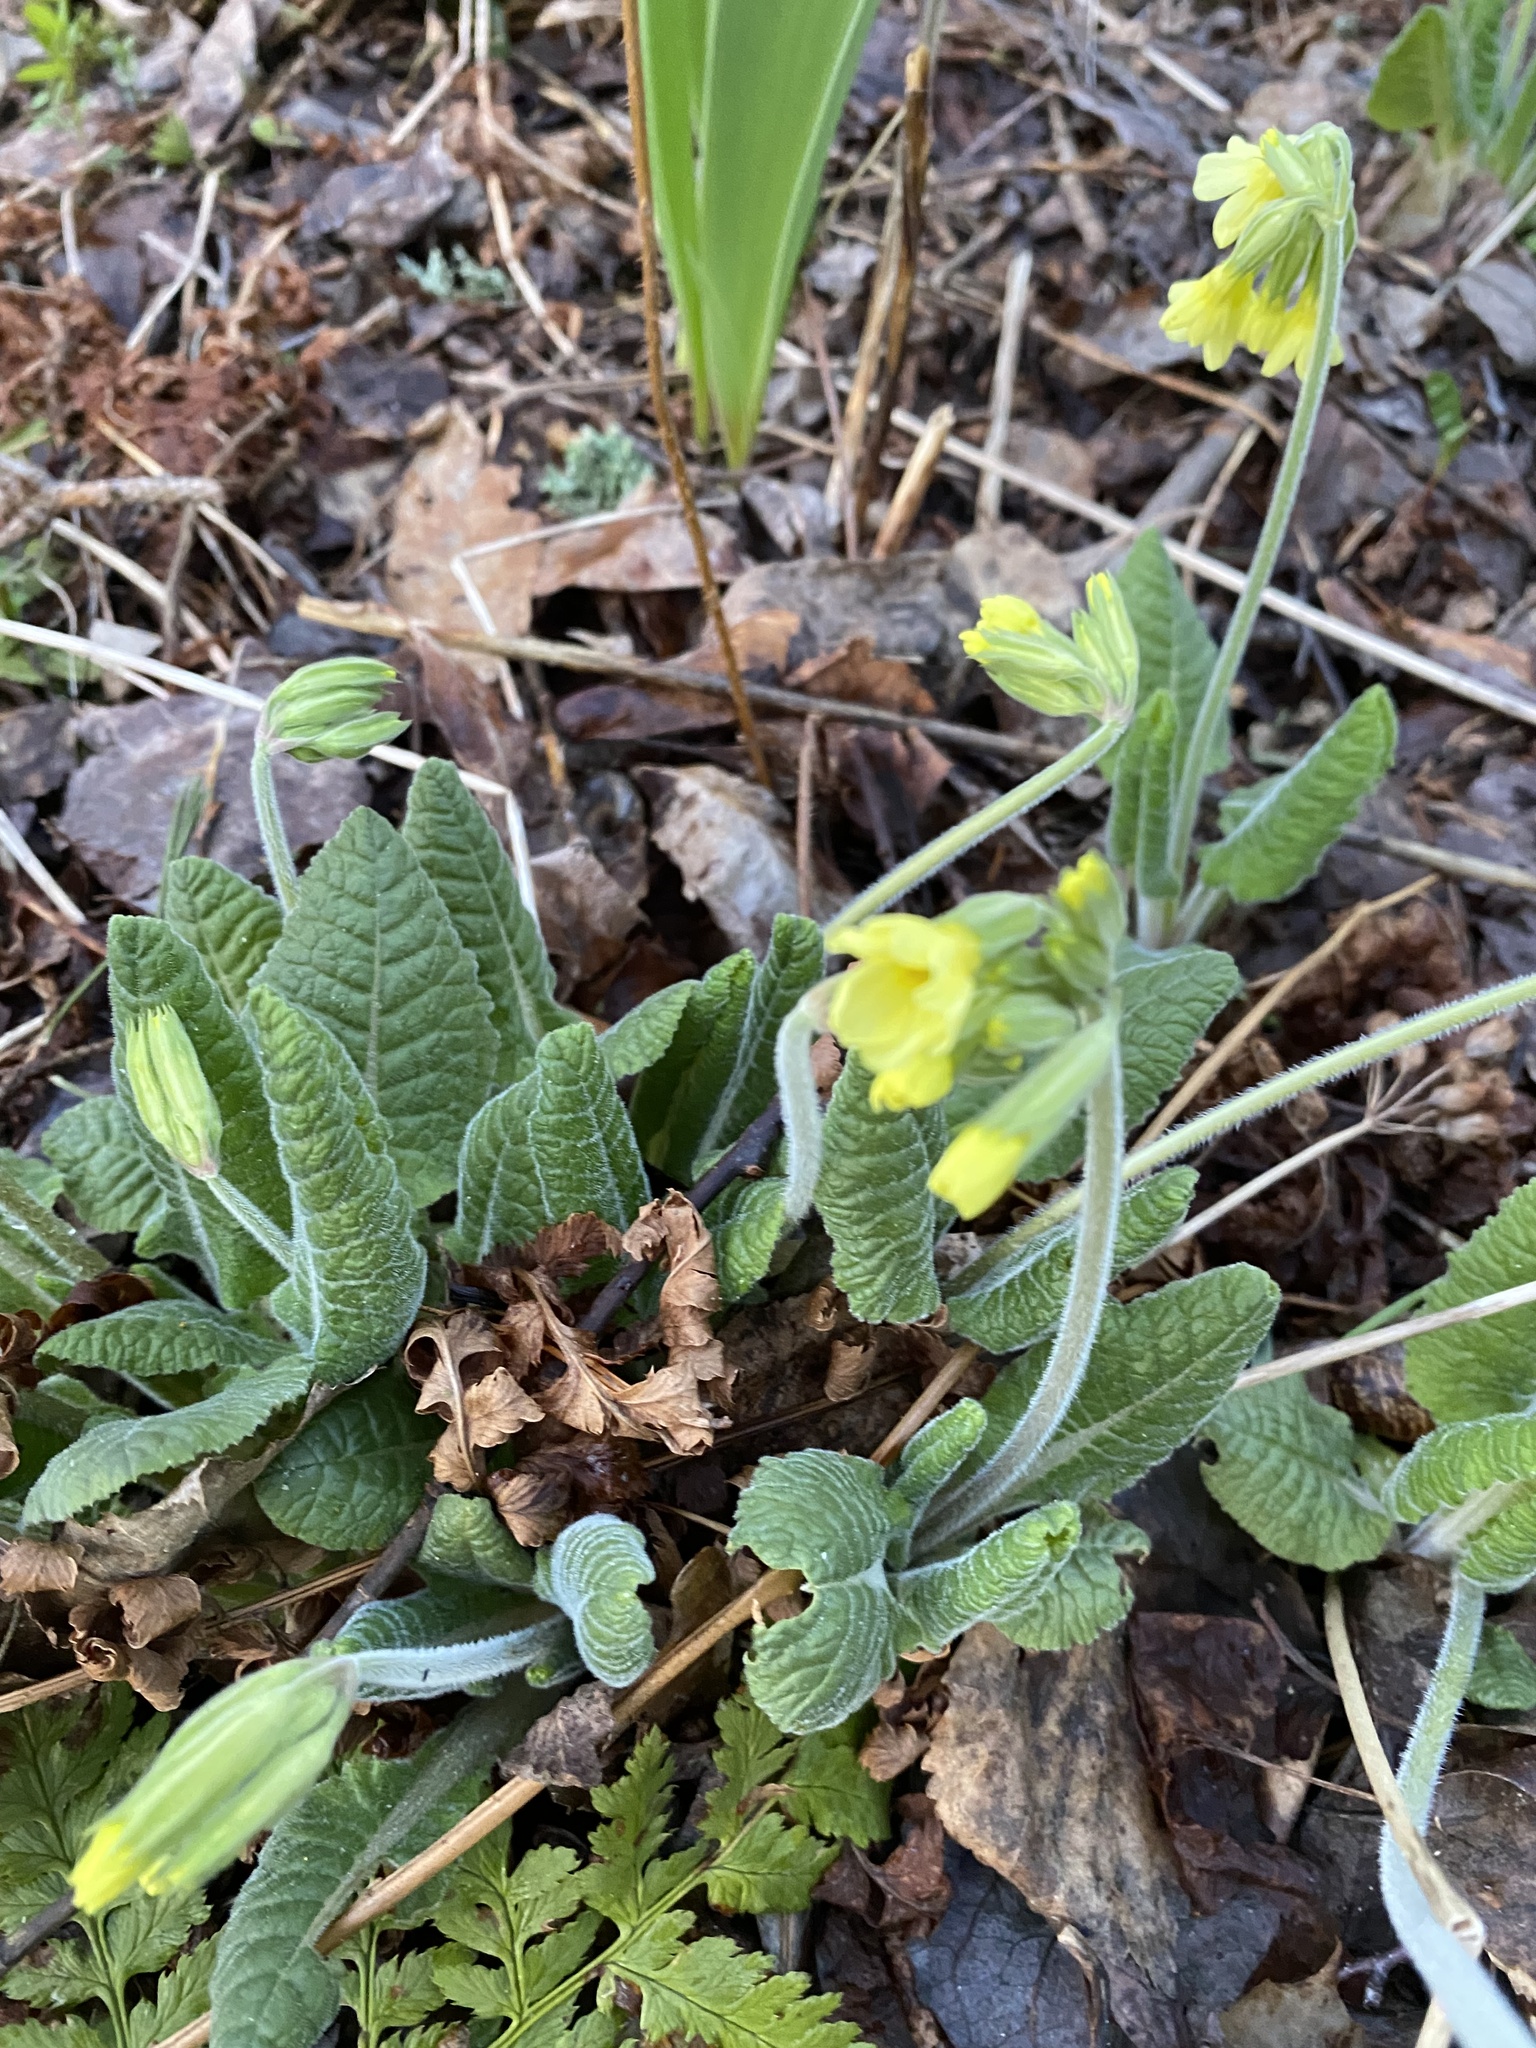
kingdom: Plantae
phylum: Tracheophyta
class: Magnoliopsida
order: Ericales
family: Primulaceae
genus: Primula
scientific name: Primula elatior
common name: Oxlip
